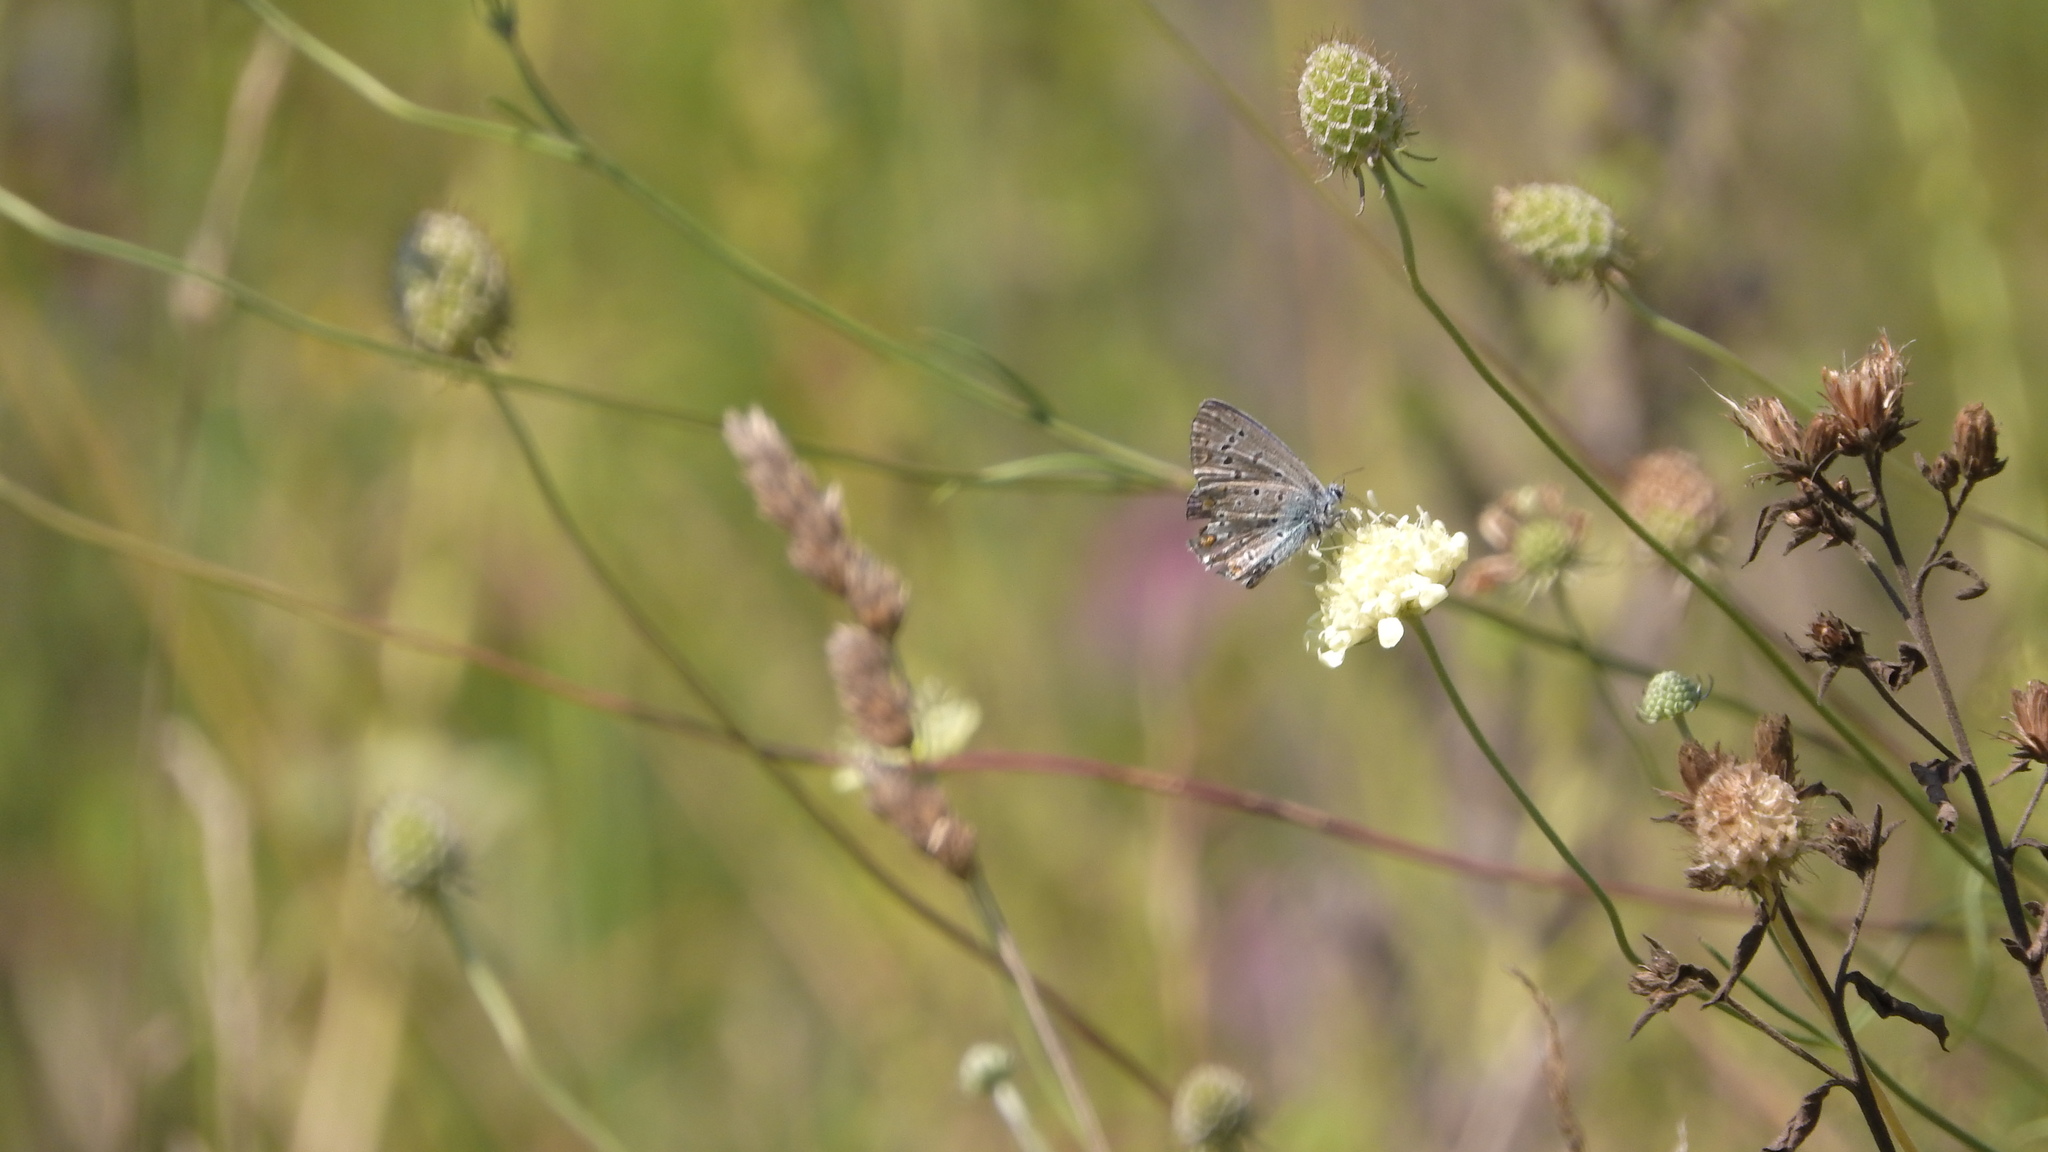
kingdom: Animalia
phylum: Arthropoda
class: Insecta
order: Lepidoptera
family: Lycaenidae
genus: Polyommatus
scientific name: Polyommatus icarus
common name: Common blue
